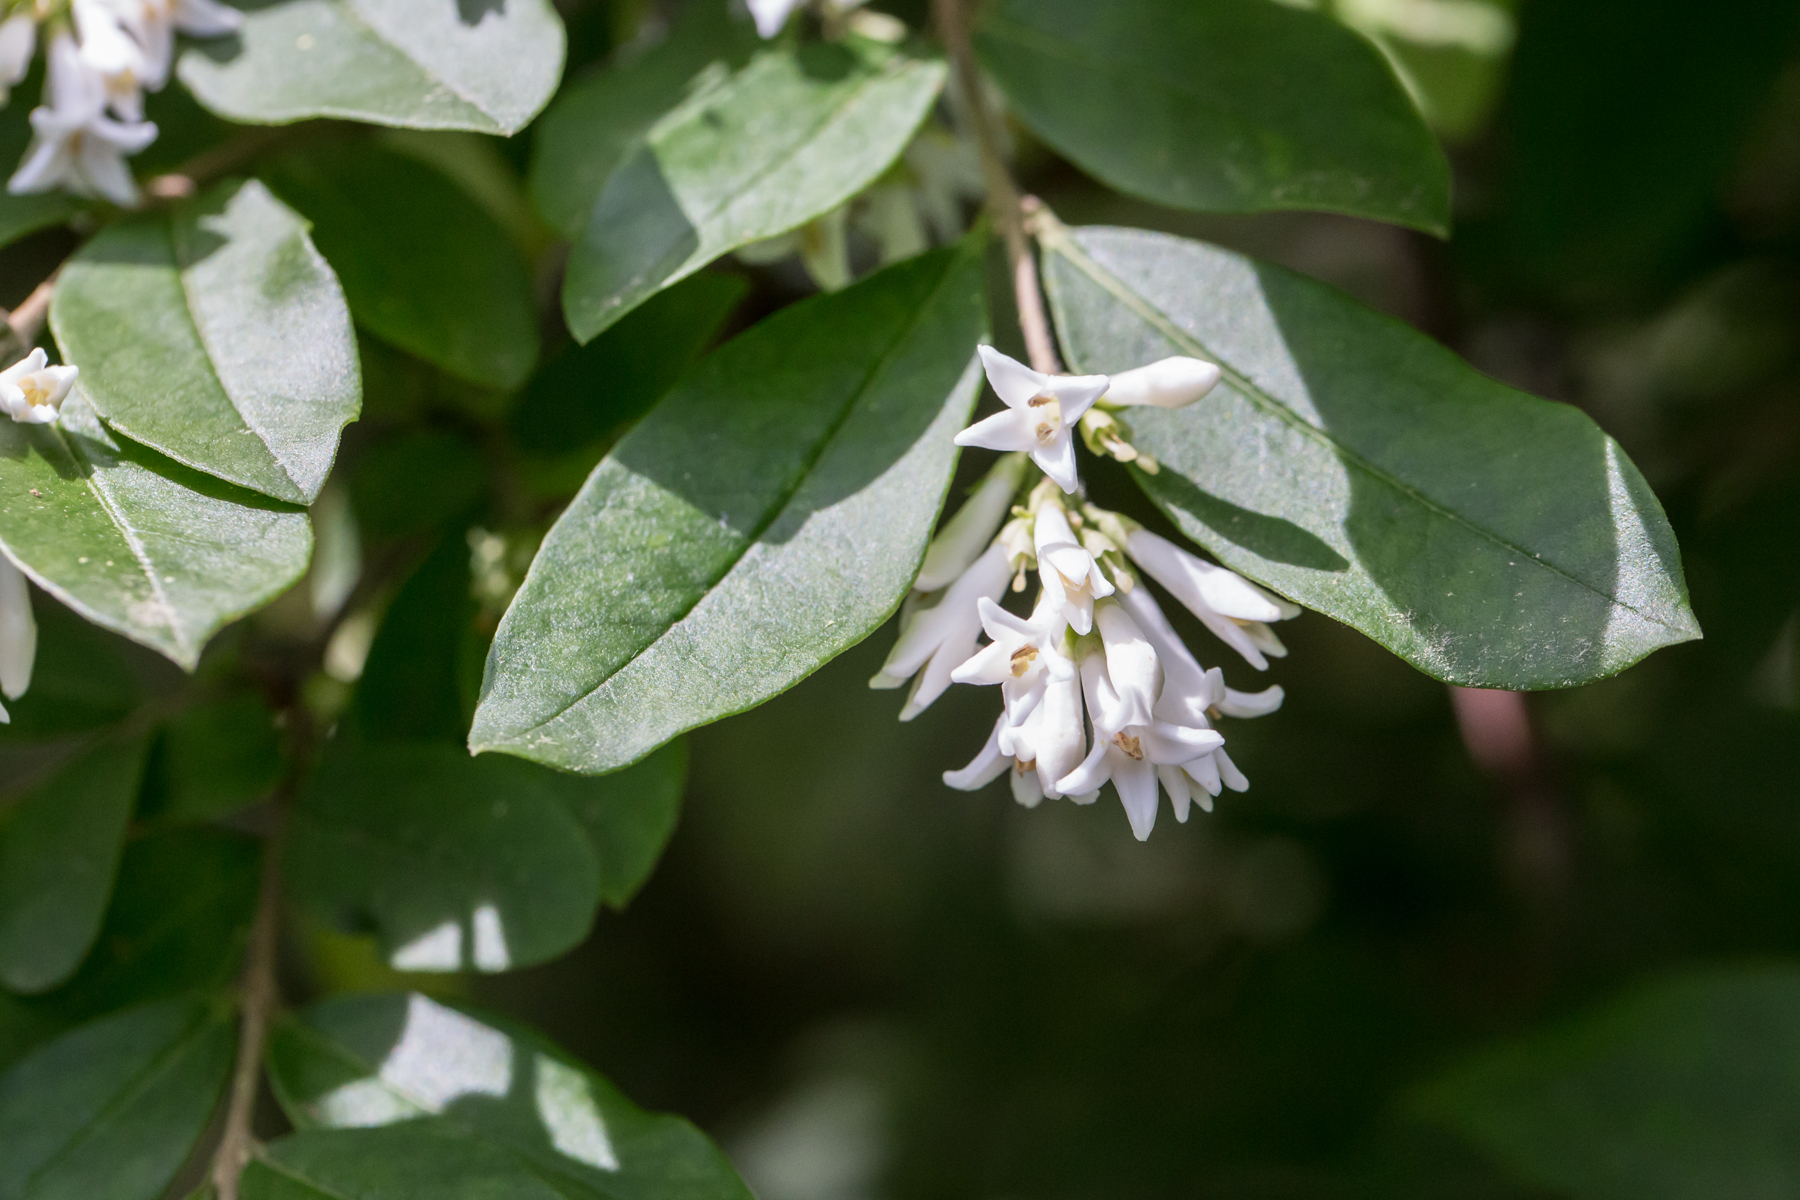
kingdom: Plantae
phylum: Tracheophyta
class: Magnoliopsida
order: Lamiales
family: Oleaceae
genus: Ligustrum
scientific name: Ligustrum obtusifolium
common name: Border privet
